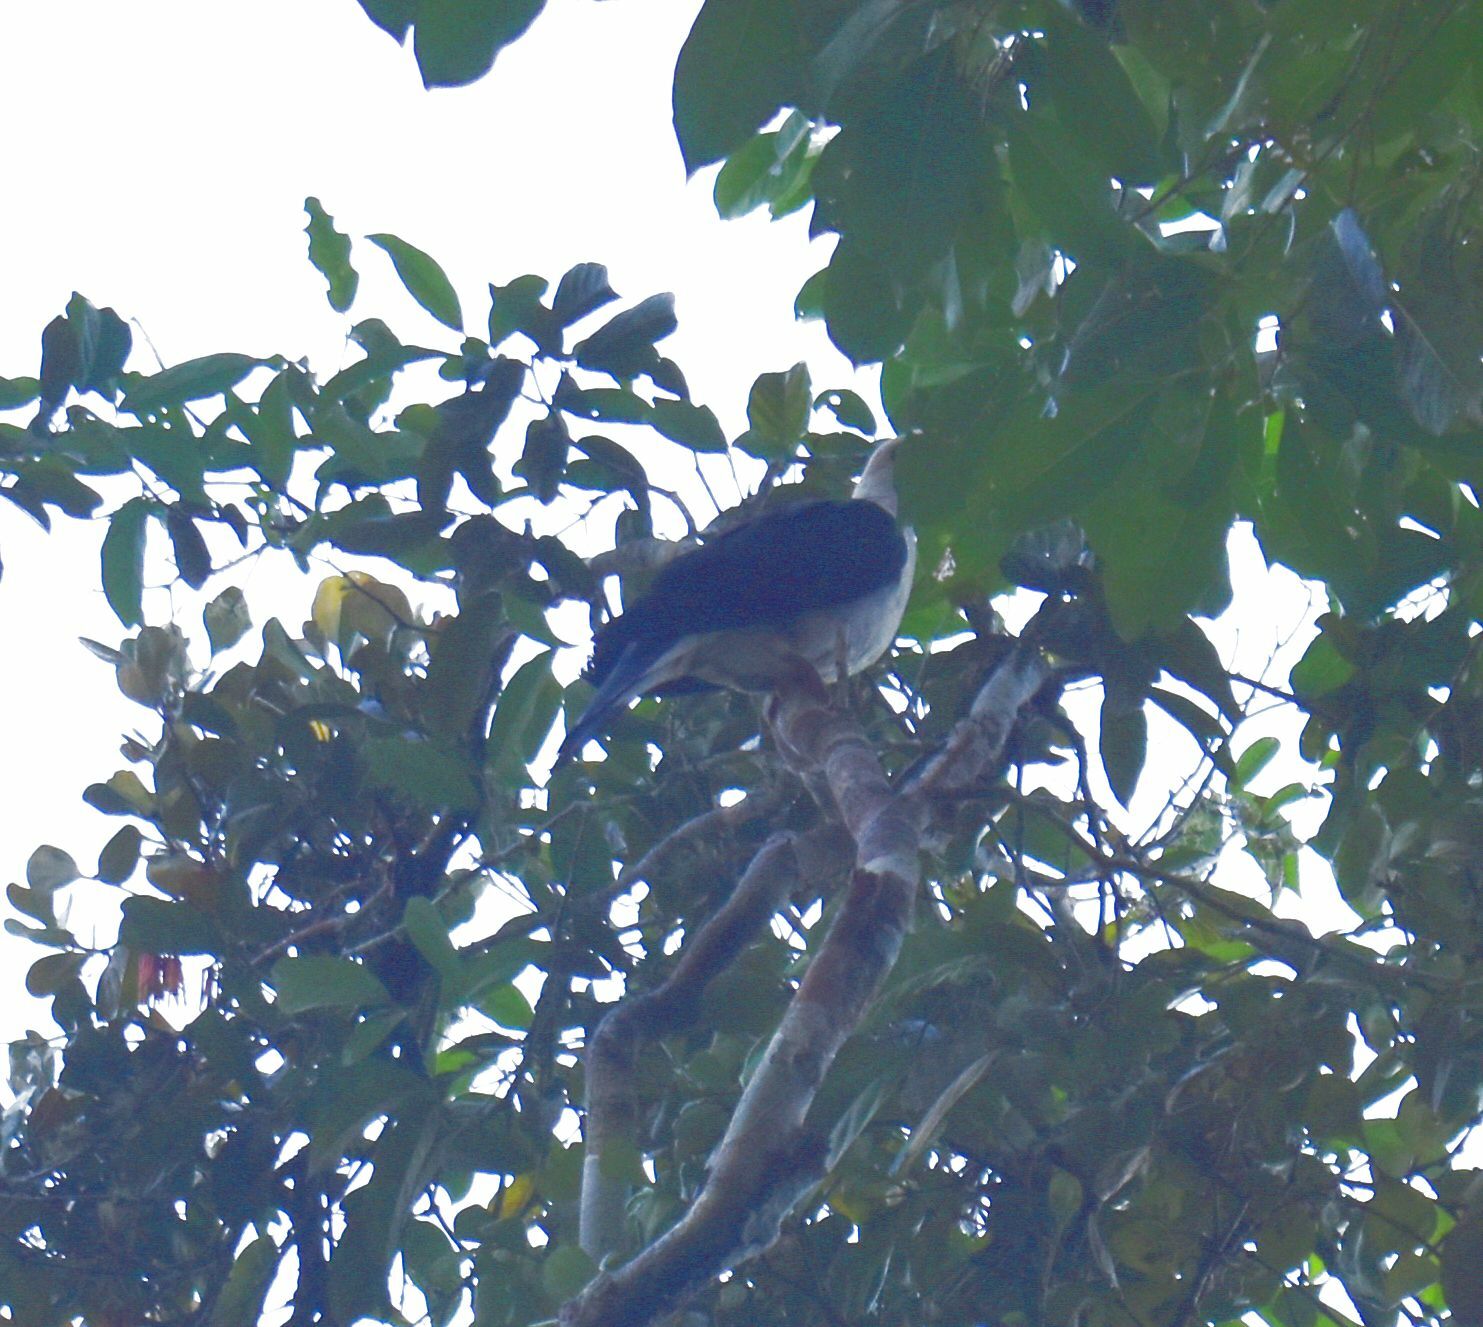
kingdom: Animalia
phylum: Chordata
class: Aves
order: Columbiformes
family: Columbidae
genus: Columba
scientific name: Columba leucomela
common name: White-headed pigeon
